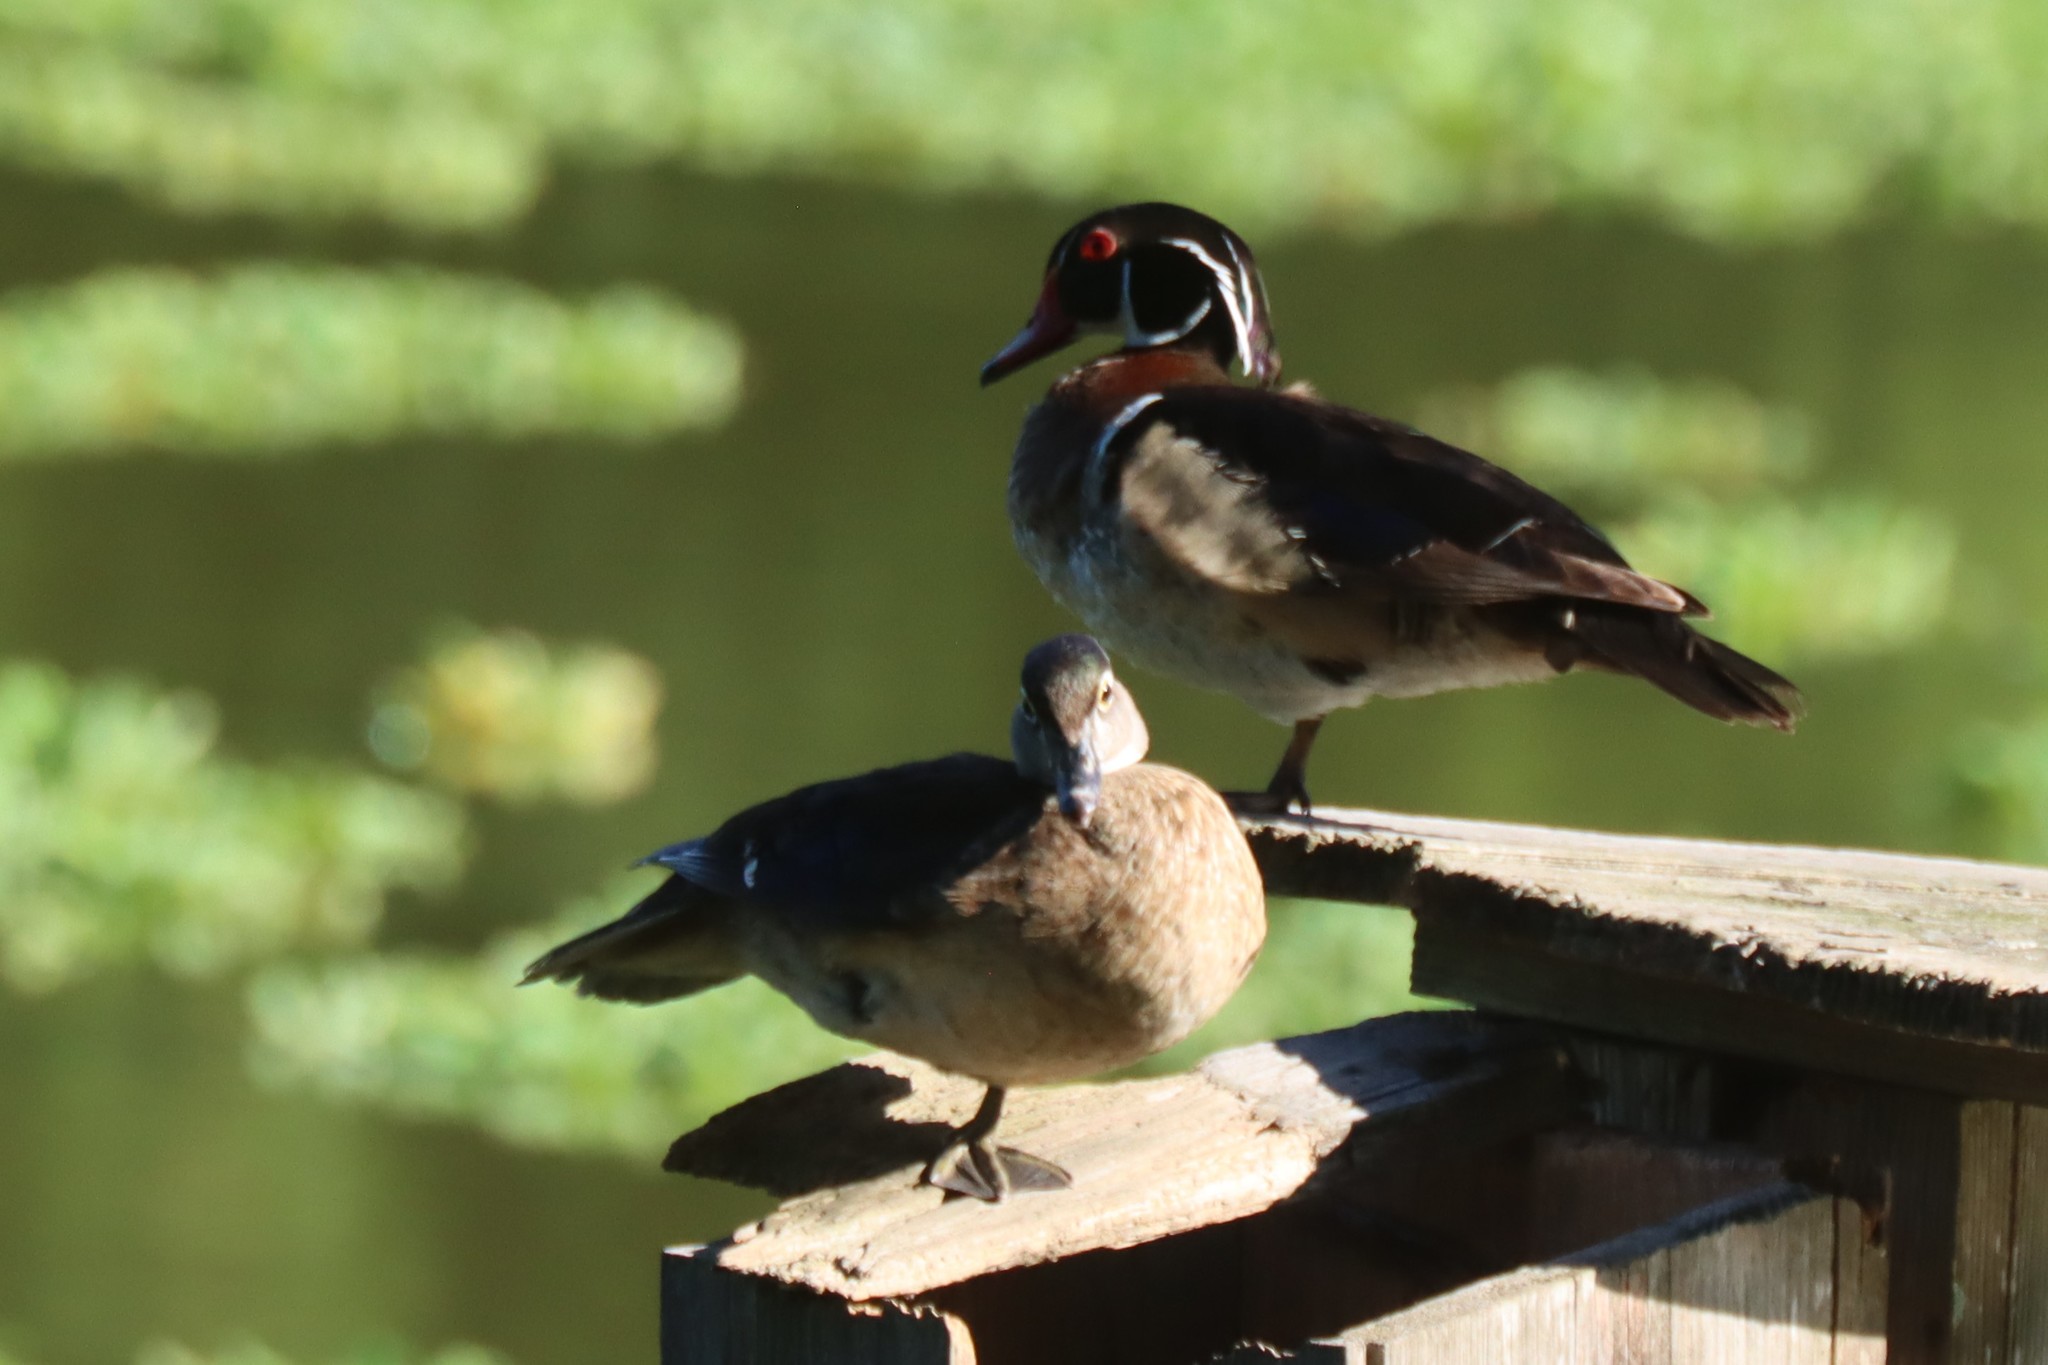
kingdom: Animalia
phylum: Chordata
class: Aves
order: Anseriformes
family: Anatidae
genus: Aix
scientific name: Aix sponsa
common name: Wood duck
